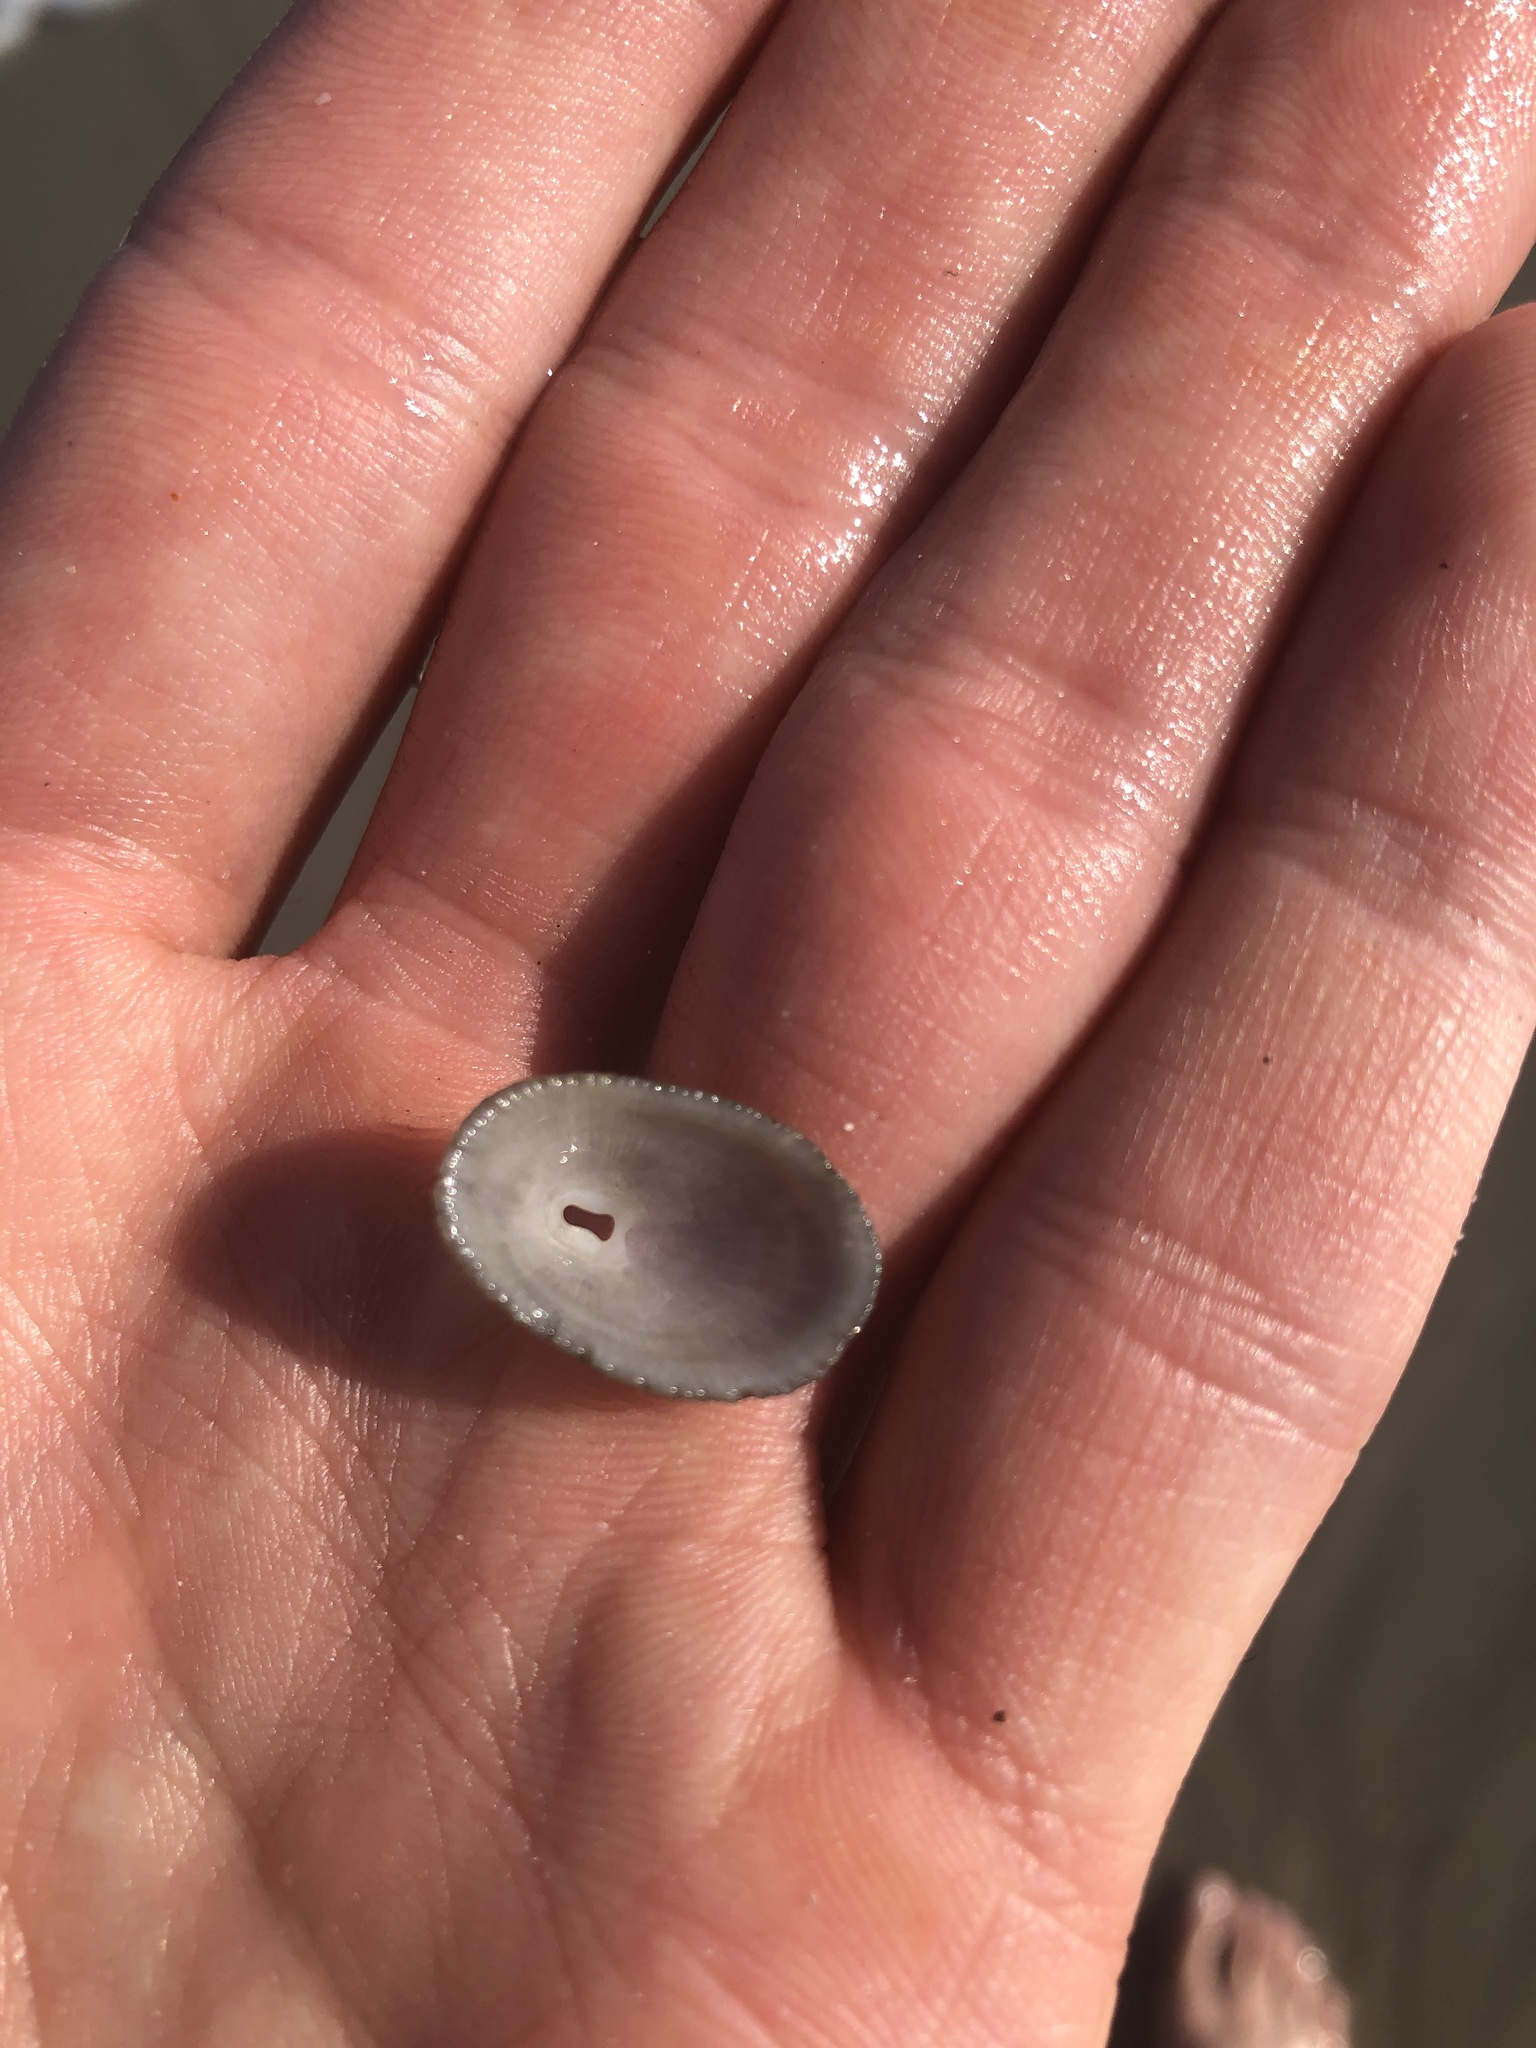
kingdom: Animalia
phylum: Mollusca
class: Gastropoda
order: Lepetellida
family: Fissurellidae
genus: Diodora
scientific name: Diodora cayenensis
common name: Cayenne keyhole limpet
